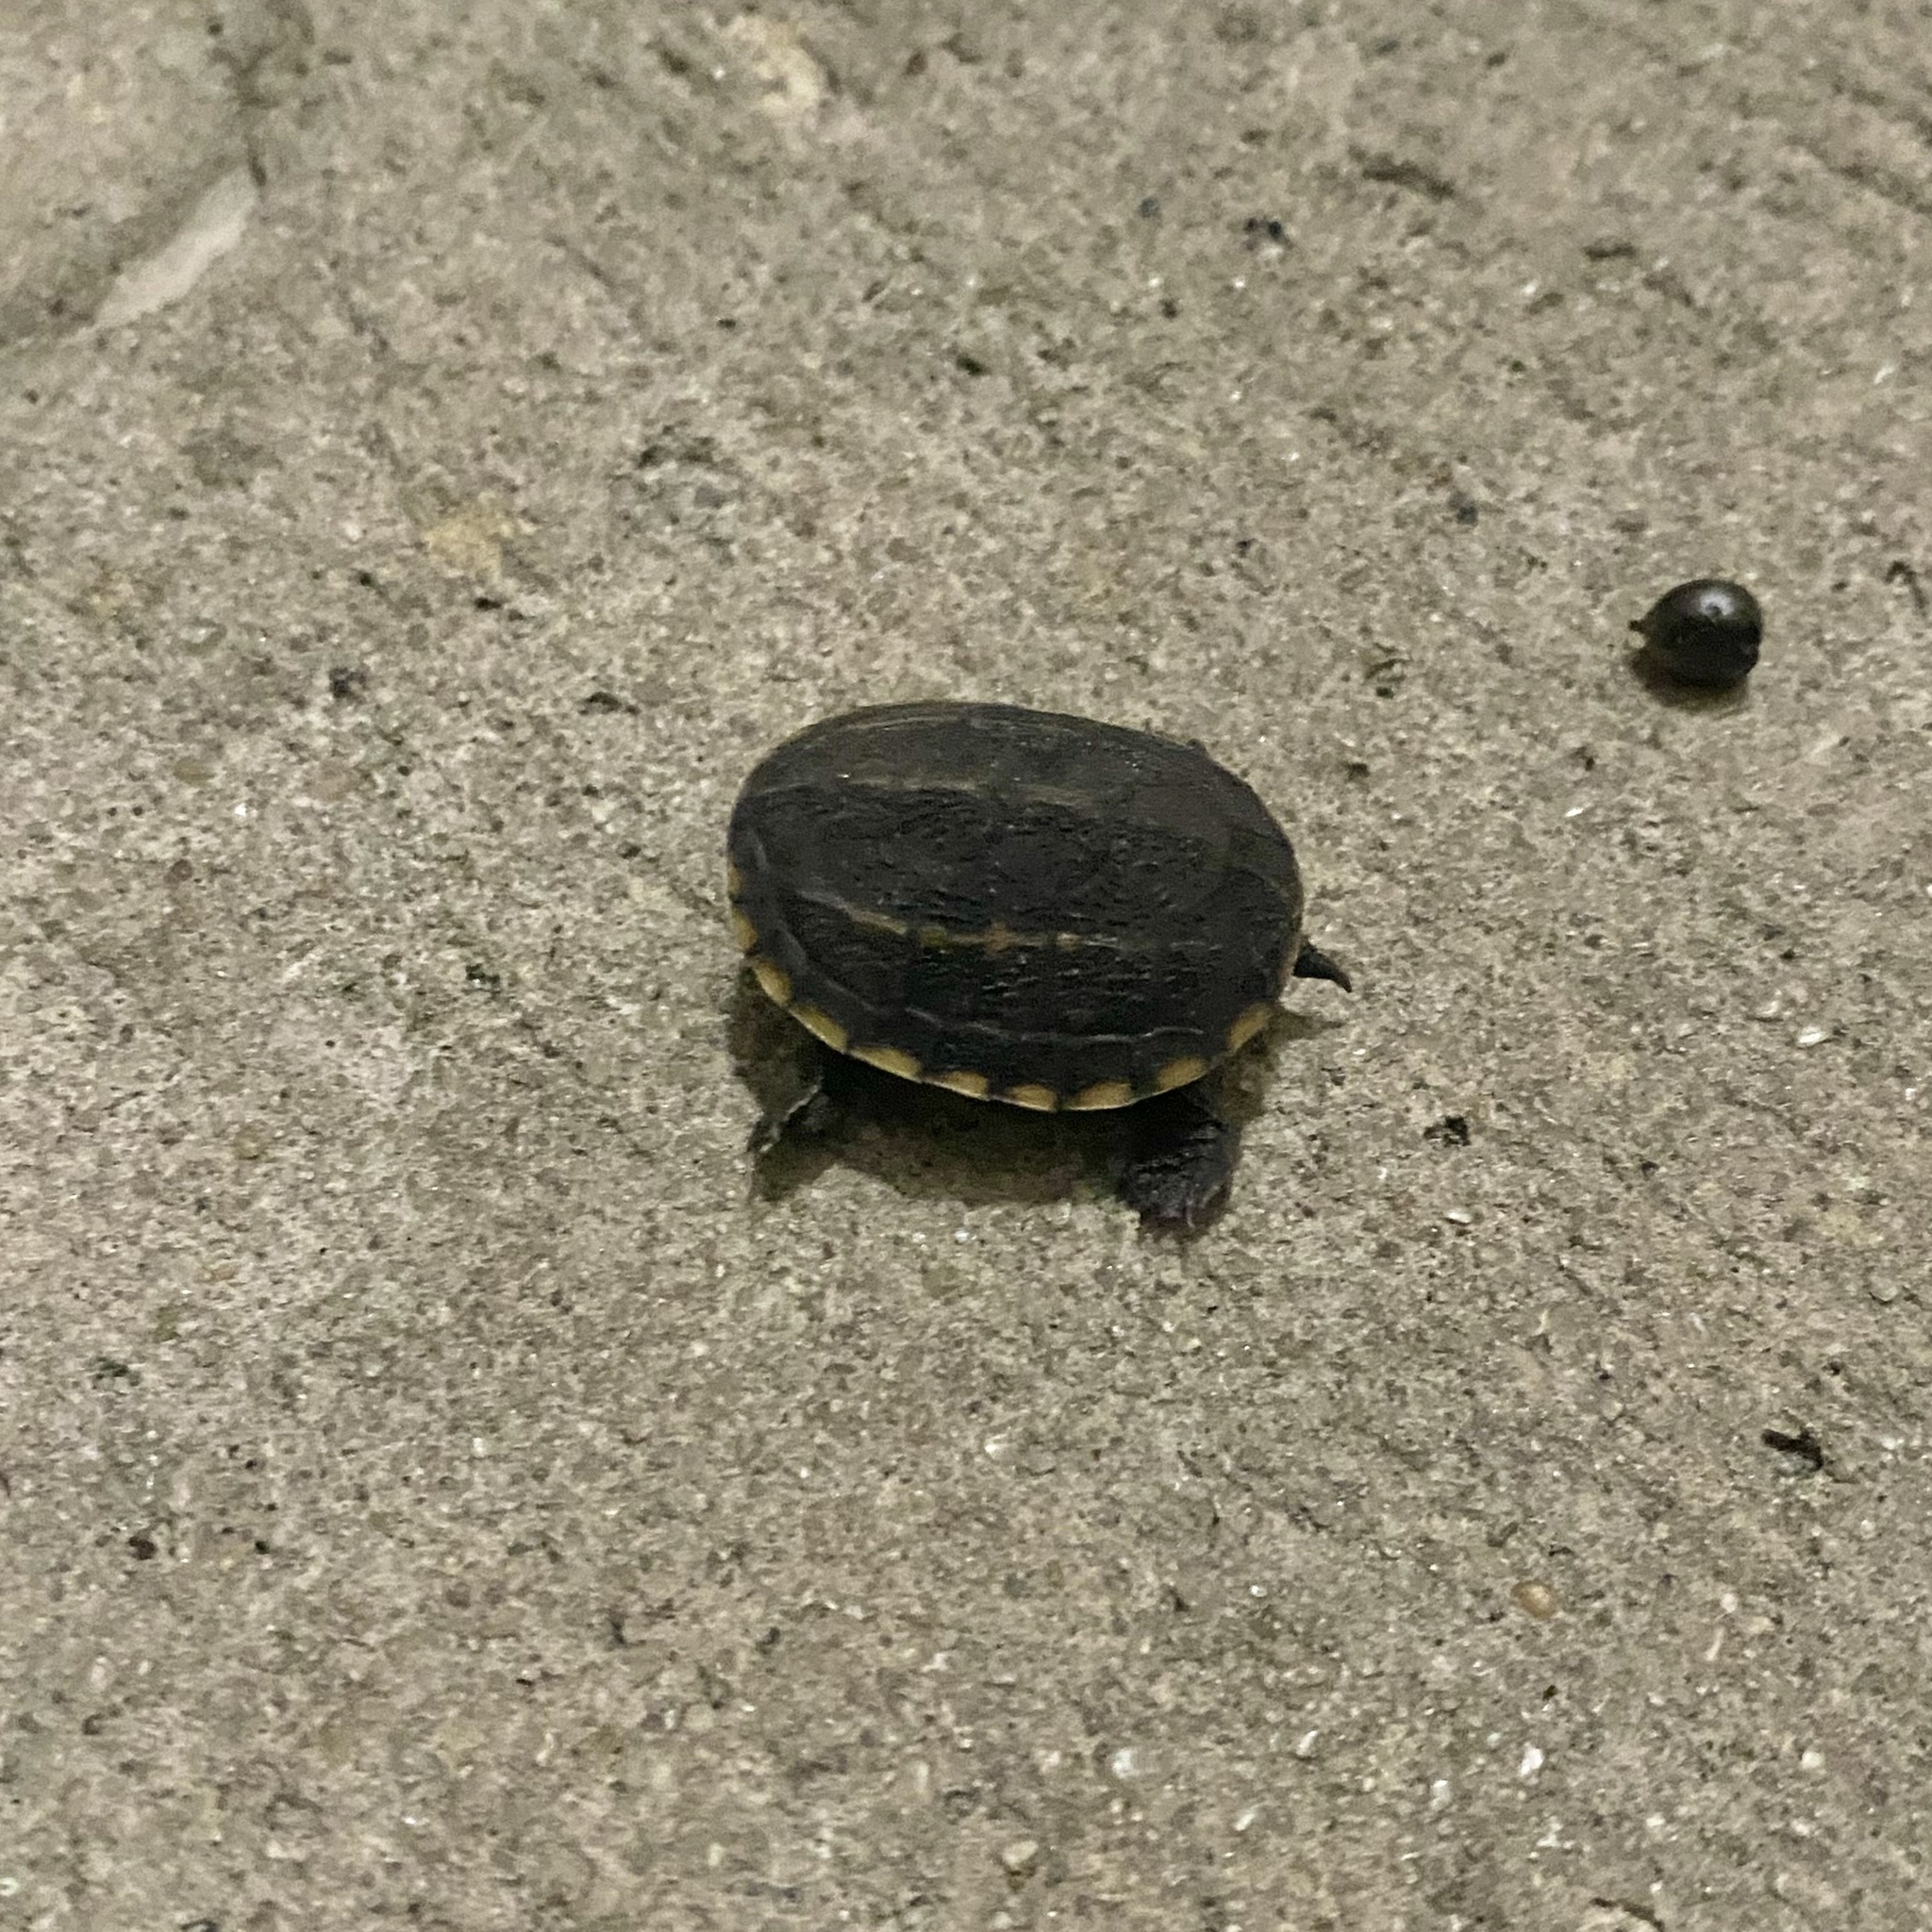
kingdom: Animalia
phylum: Chordata
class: Testudines
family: Kinosternidae
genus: Kinosternon
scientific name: Kinosternon baurii
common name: Striped mud turtle
